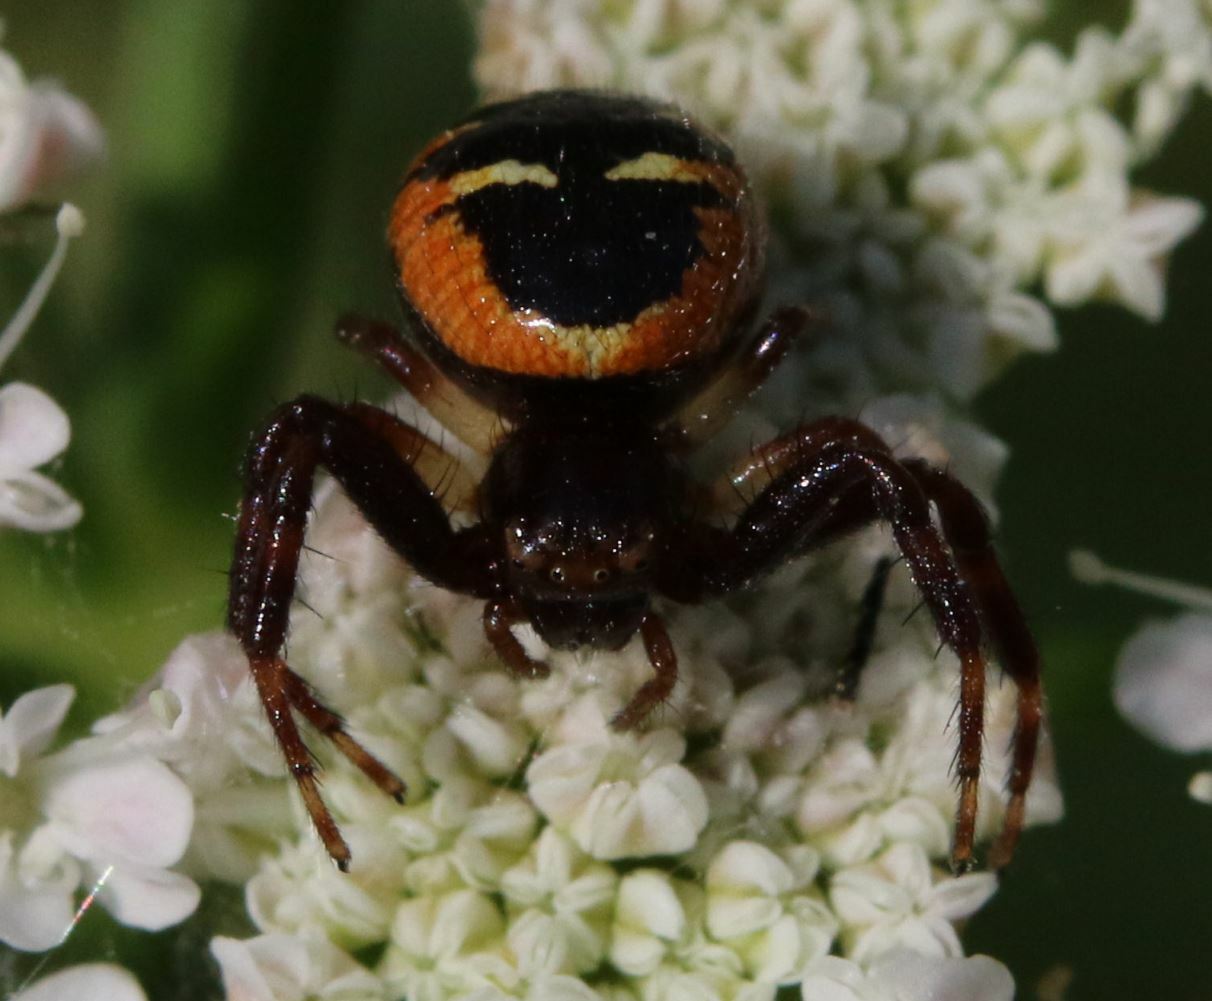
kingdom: Animalia
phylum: Arthropoda
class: Arachnida
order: Araneae
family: Thomisidae
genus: Synema
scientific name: Synema globosum
